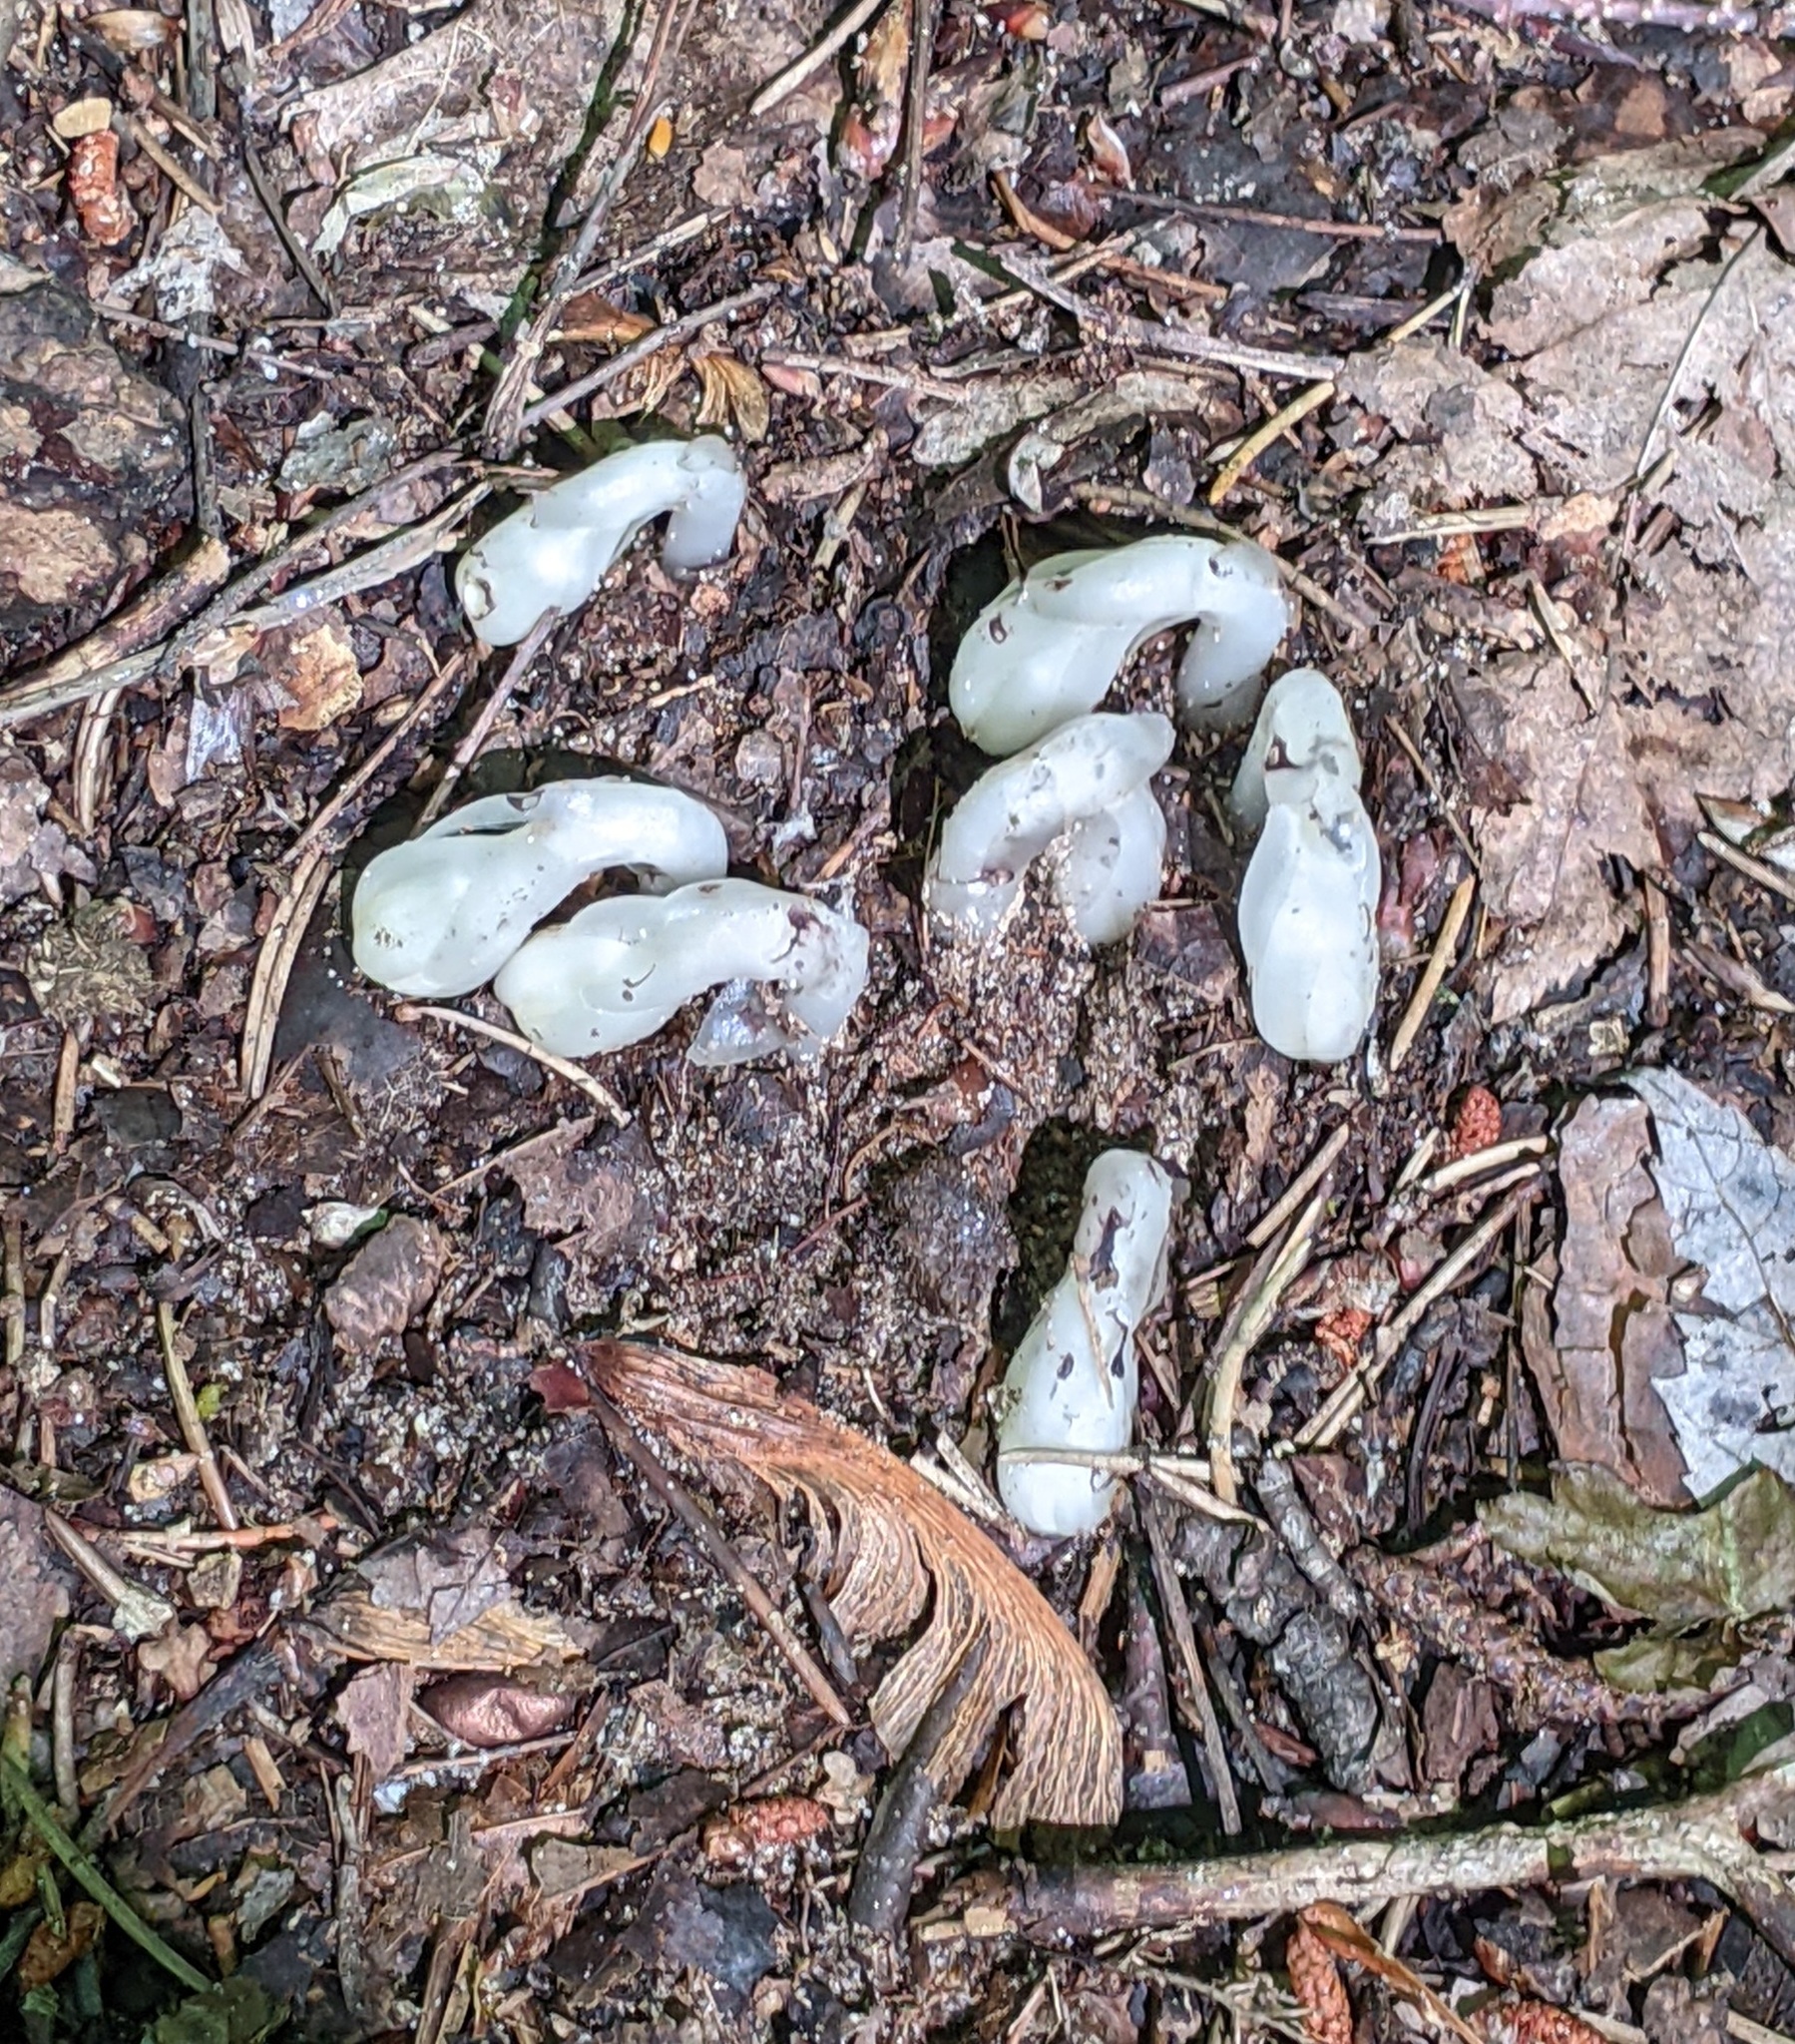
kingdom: Plantae
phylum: Tracheophyta
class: Magnoliopsida
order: Ericales
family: Ericaceae
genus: Monotropa
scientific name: Monotropa uniflora
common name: Convulsion root
